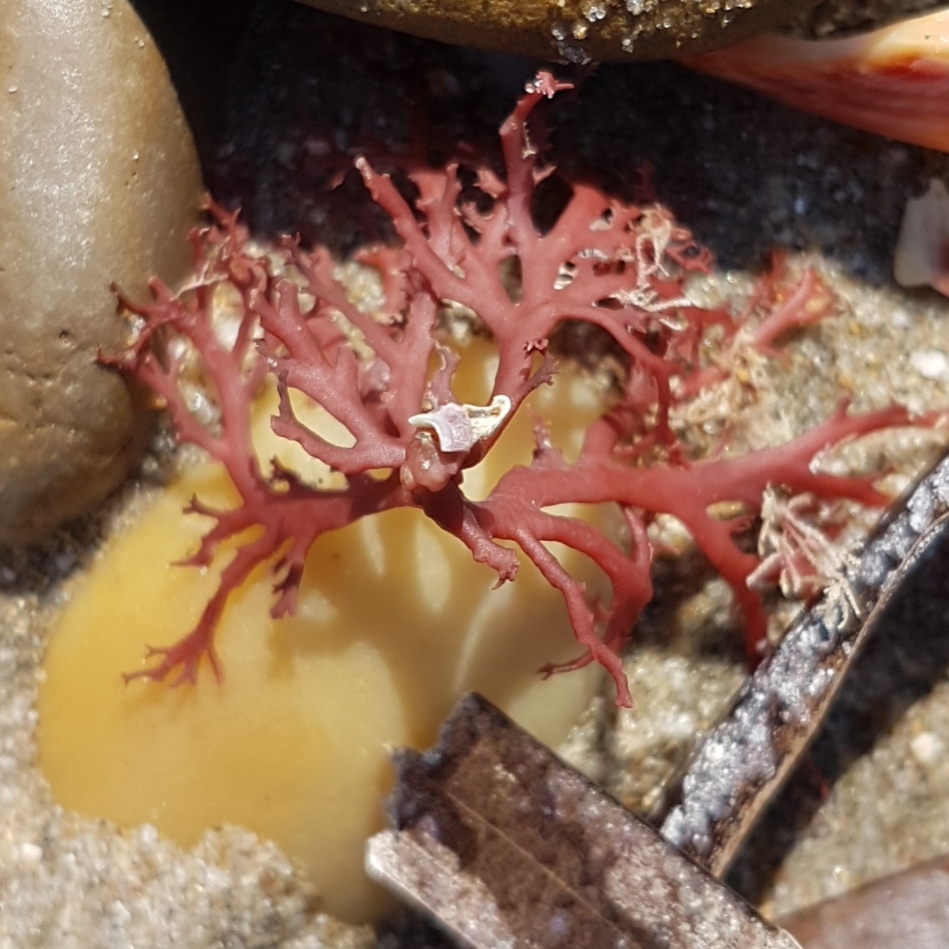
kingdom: Plantae
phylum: Rhodophyta
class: Florideophyceae
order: Gigartinales
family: Sphaerococcaceae
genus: Sphaerococcus
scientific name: Sphaerococcus coronopifolius
